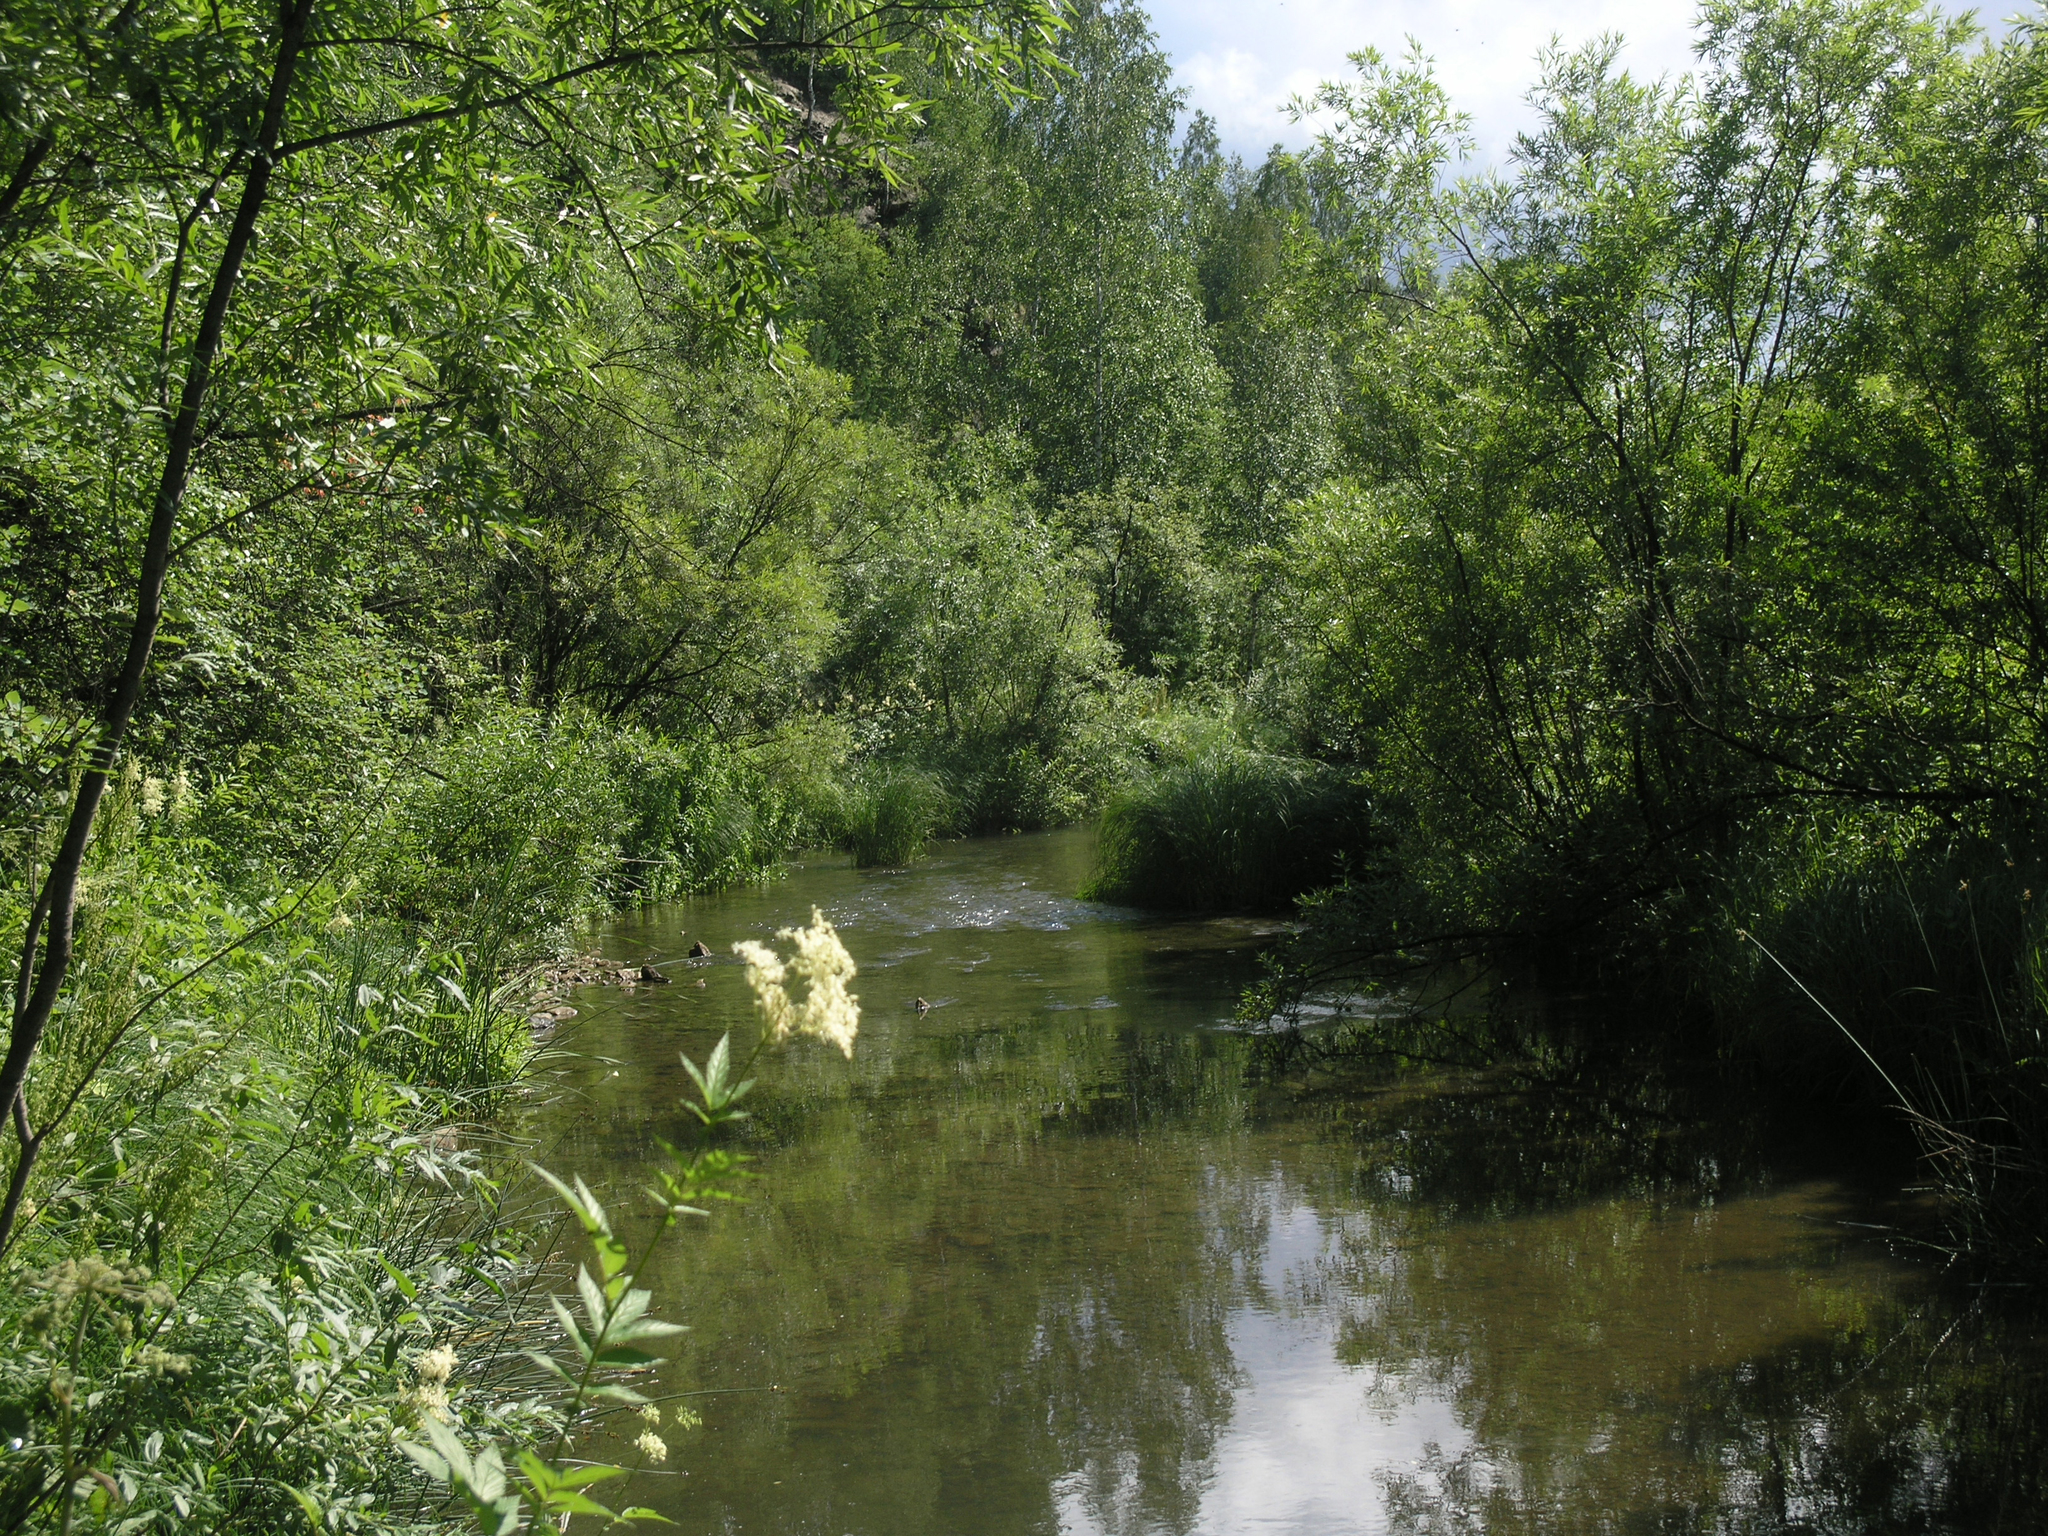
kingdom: Plantae
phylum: Tracheophyta
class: Magnoliopsida
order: Rosales
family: Rosaceae
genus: Filipendula
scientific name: Filipendula ulmaria
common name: Meadowsweet
